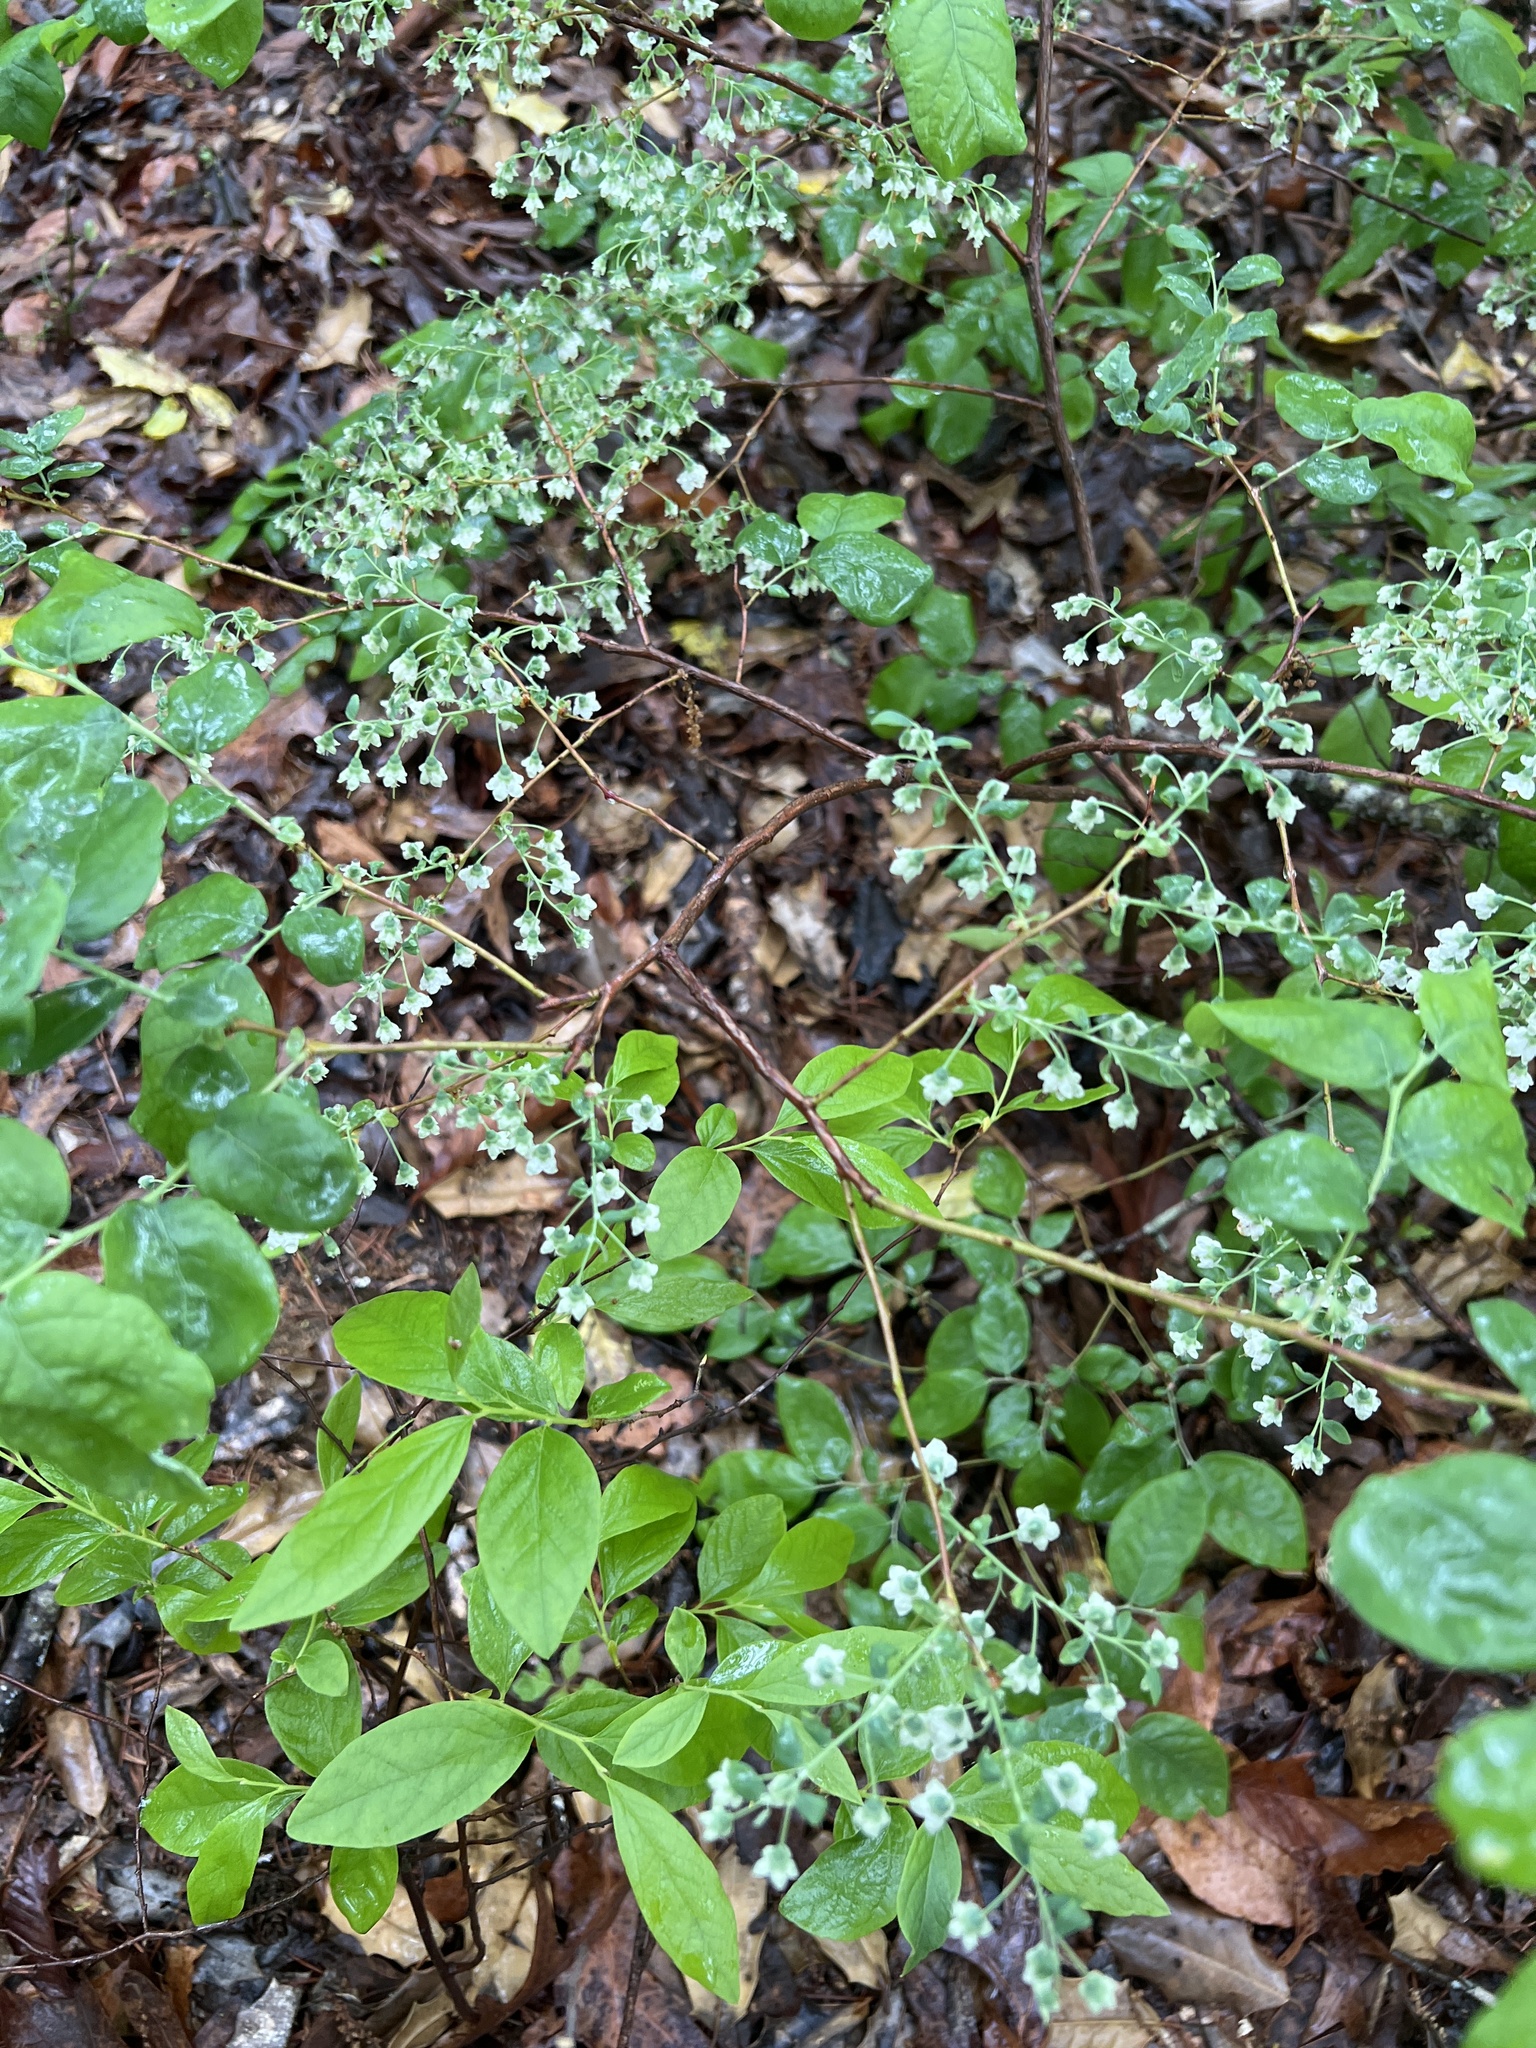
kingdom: Plantae
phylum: Tracheophyta
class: Magnoliopsida
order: Ericales
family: Ericaceae
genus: Vaccinium
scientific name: Vaccinium stamineum
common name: Deerberry
